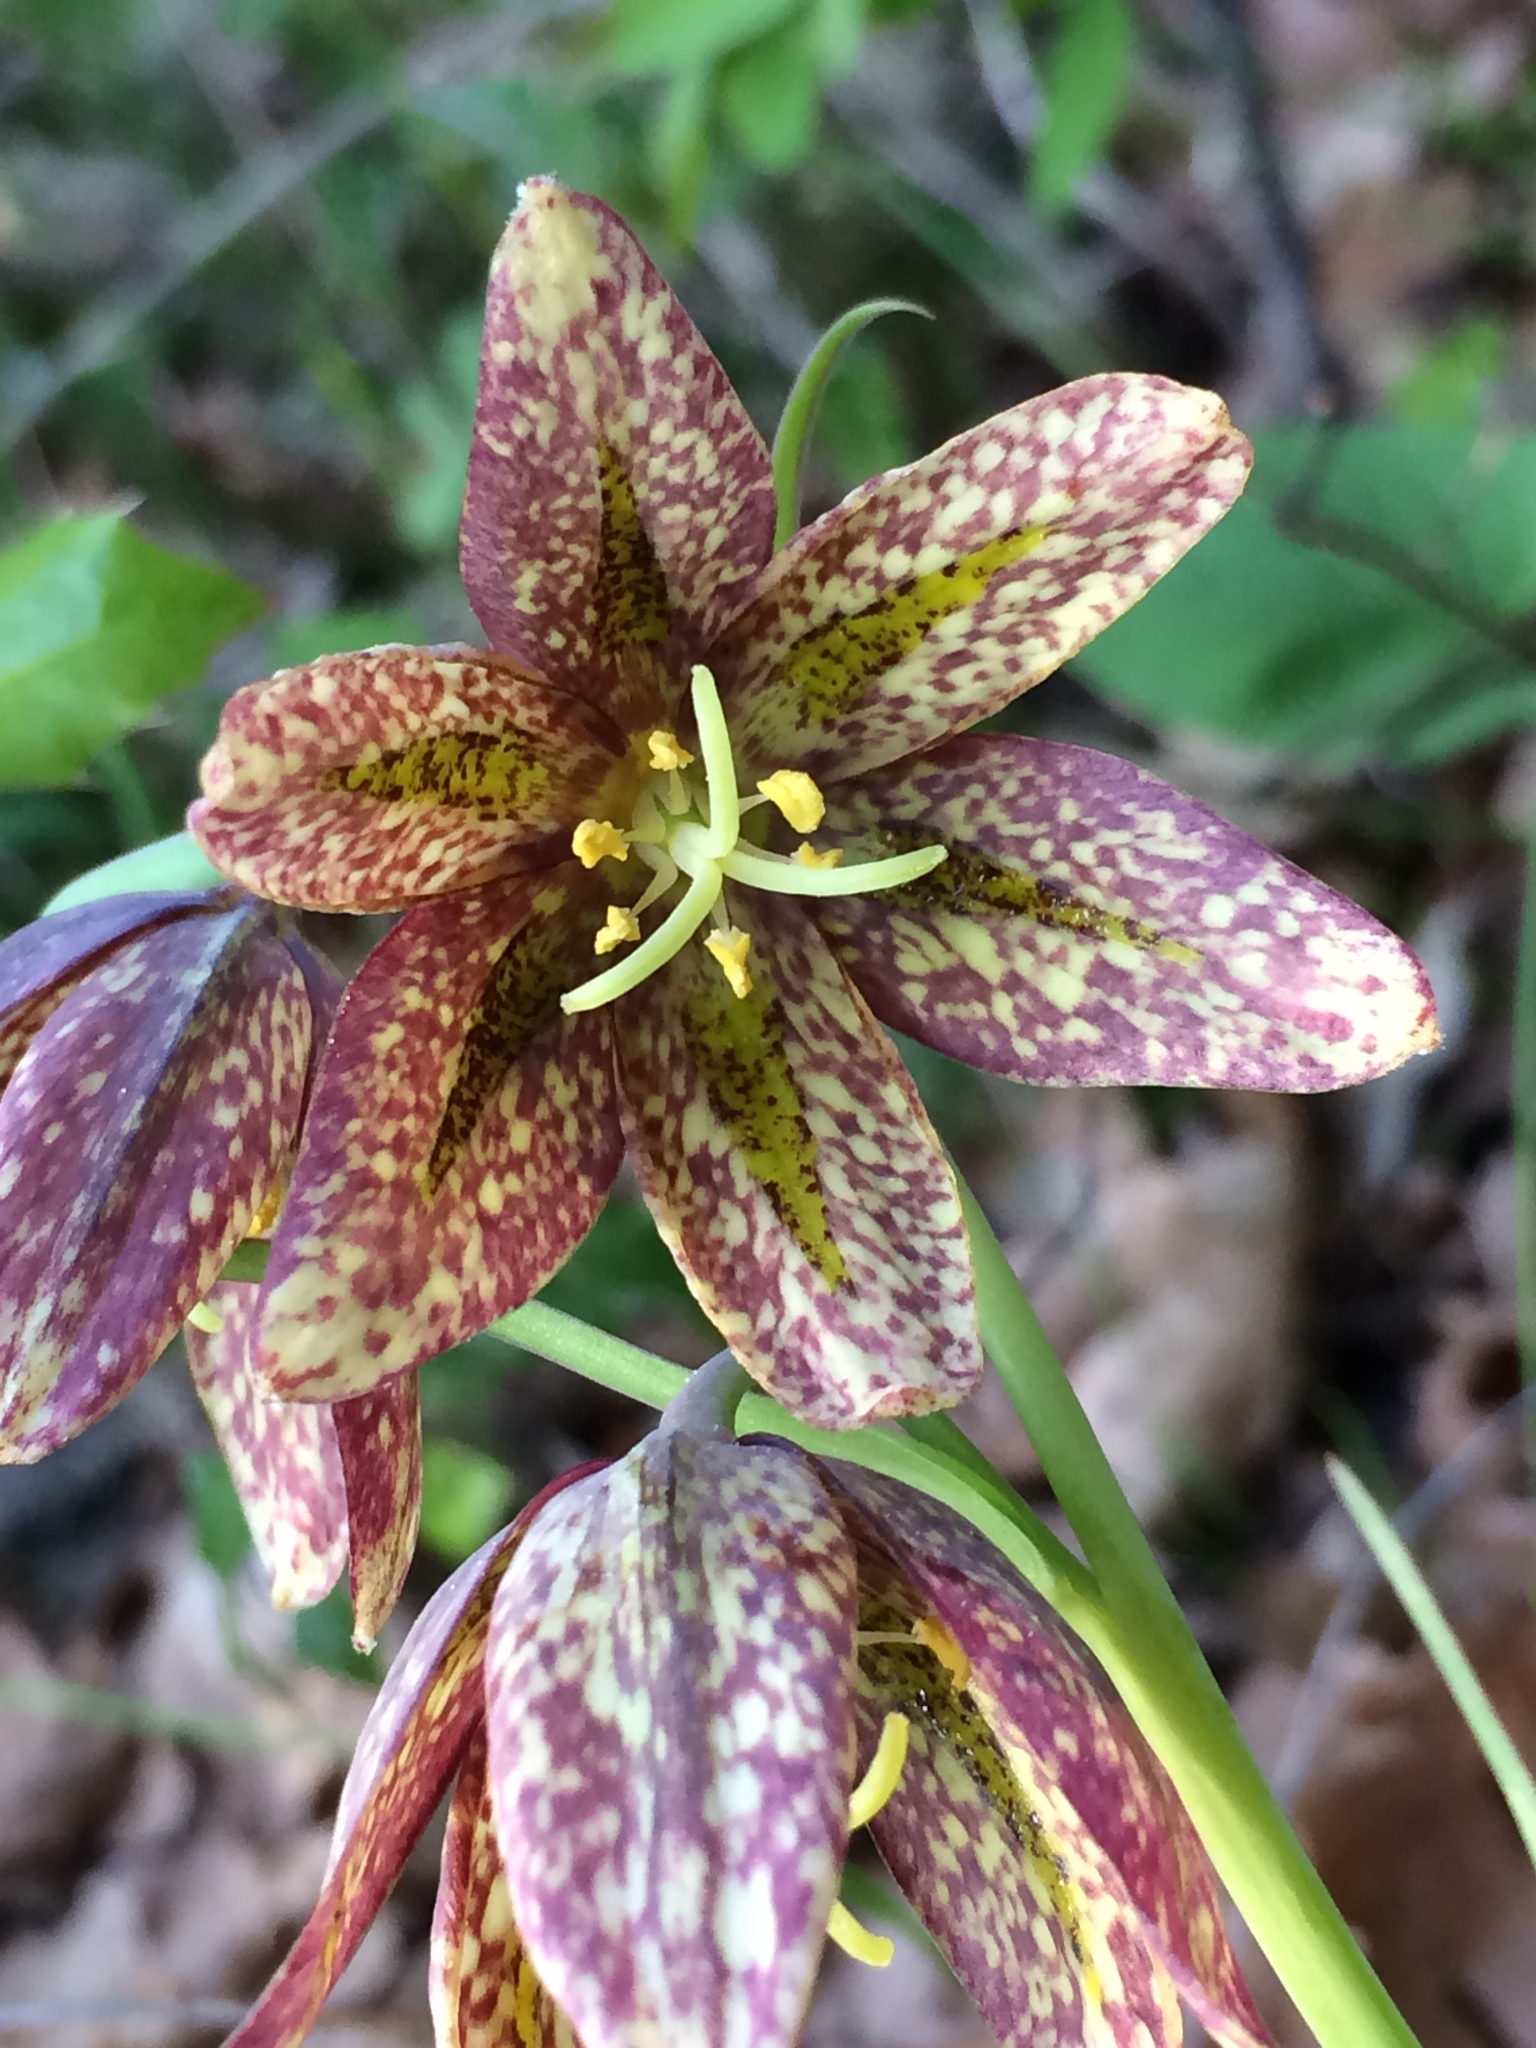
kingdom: Plantae
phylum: Tracheophyta
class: Liliopsida
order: Liliales
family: Liliaceae
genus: Fritillaria
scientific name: Fritillaria affinis
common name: Ojai fritillary
